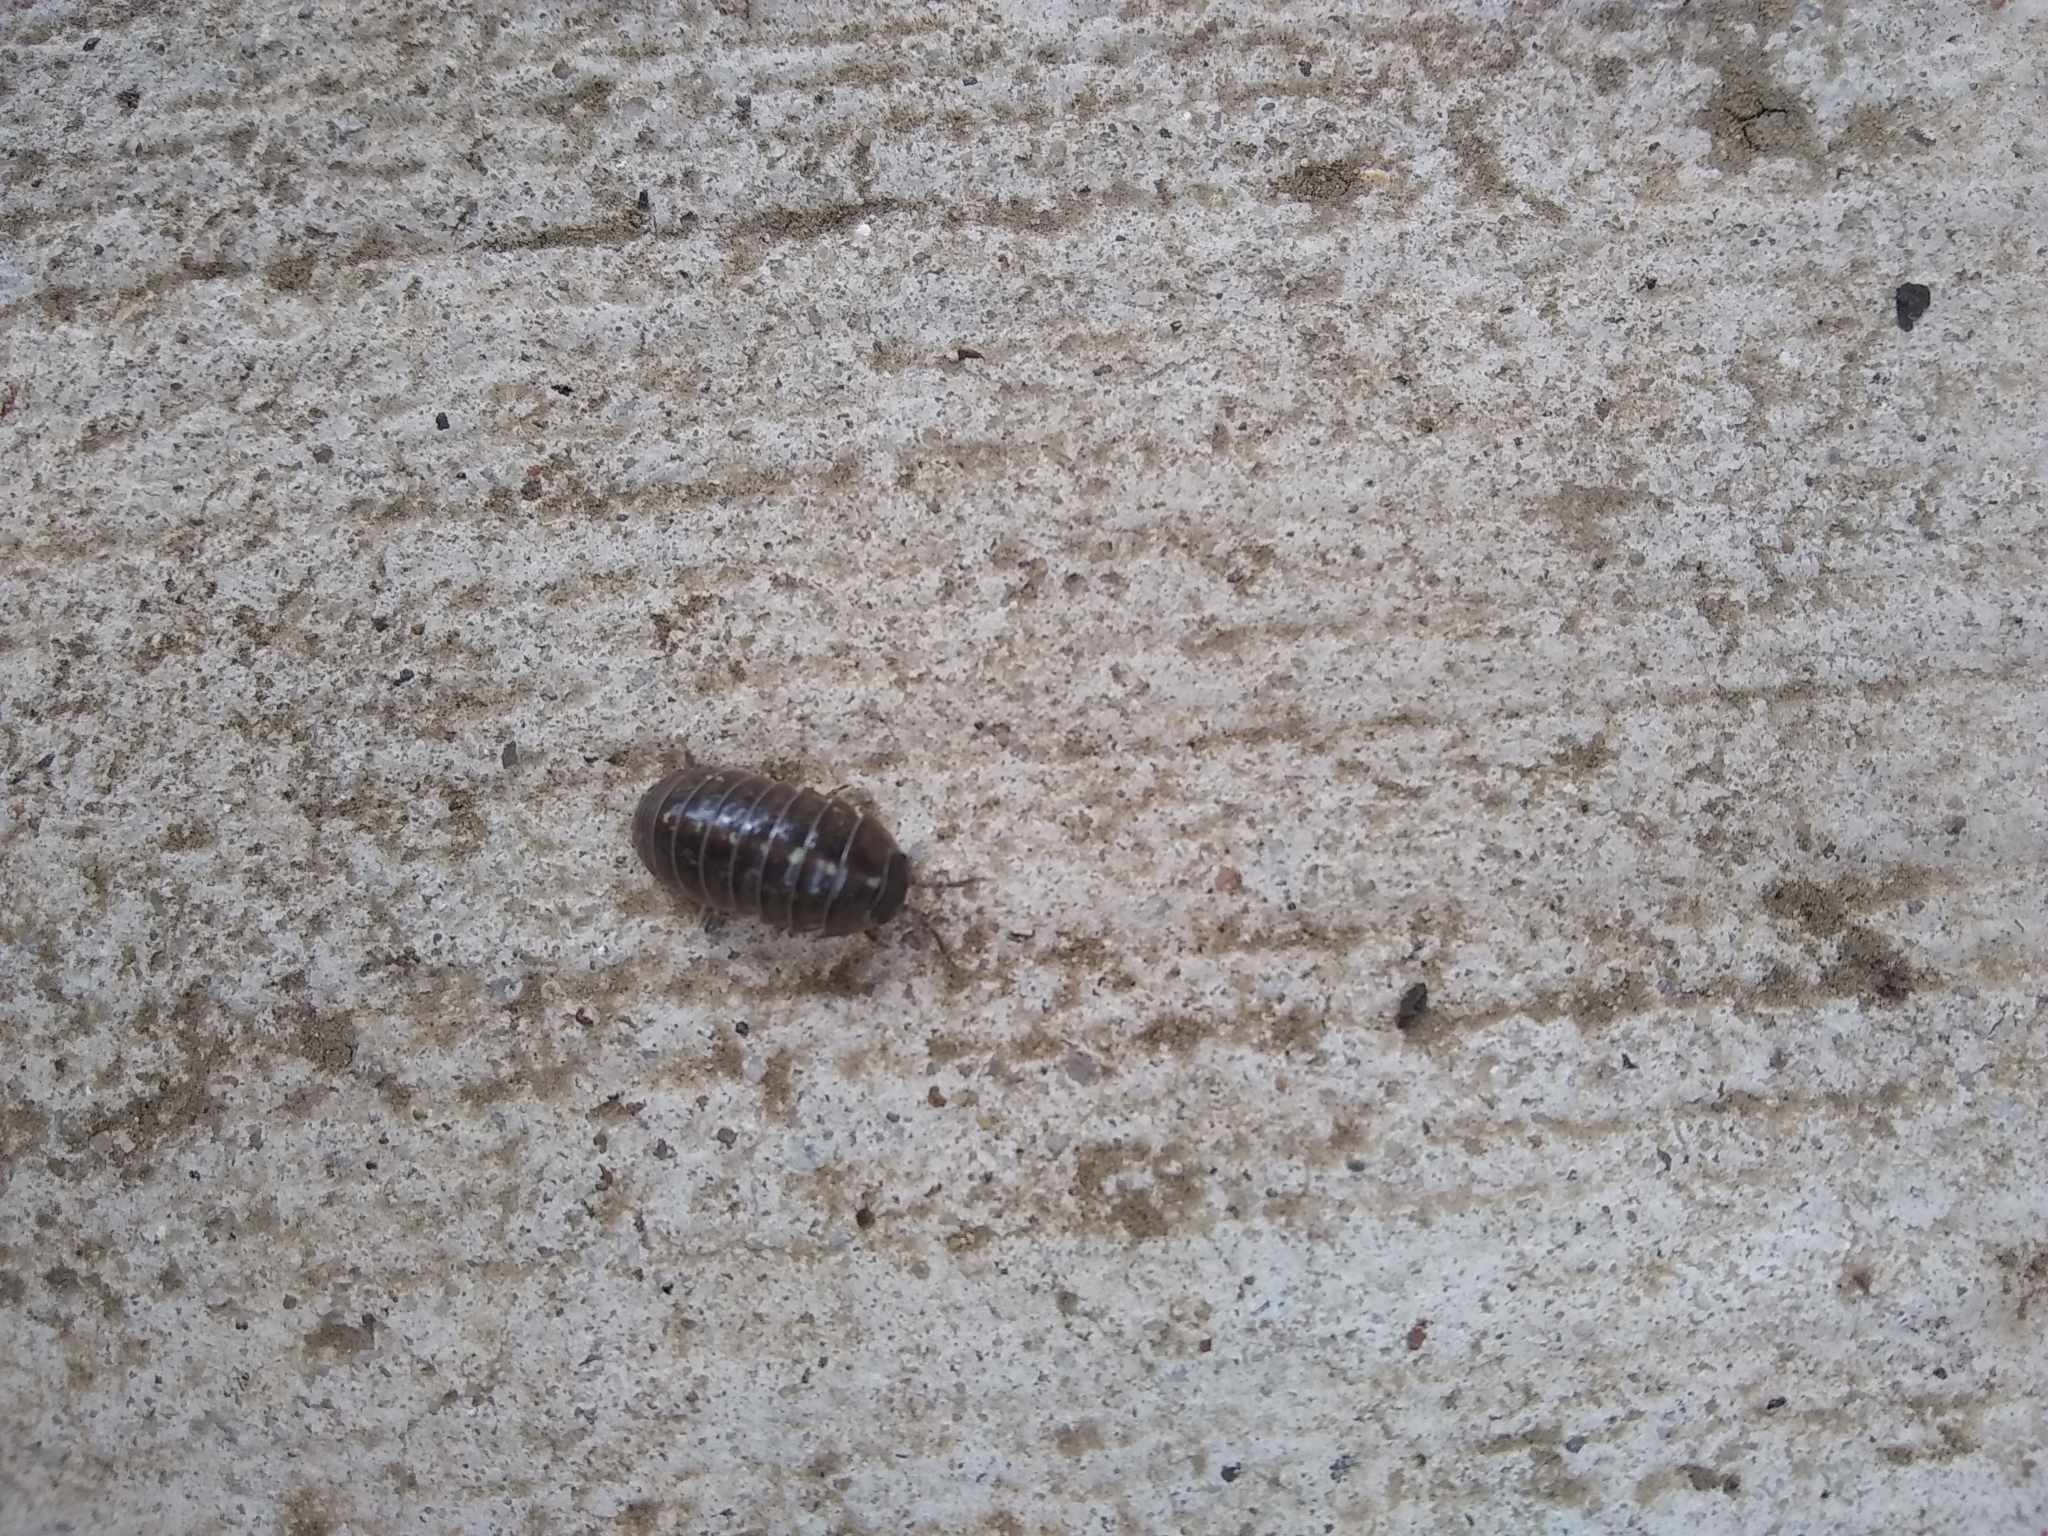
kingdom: Animalia
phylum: Arthropoda
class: Malacostraca
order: Isopoda
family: Armadillidiidae
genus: Armadillidium
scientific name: Armadillidium vulgare
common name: Common pill woodlouse
